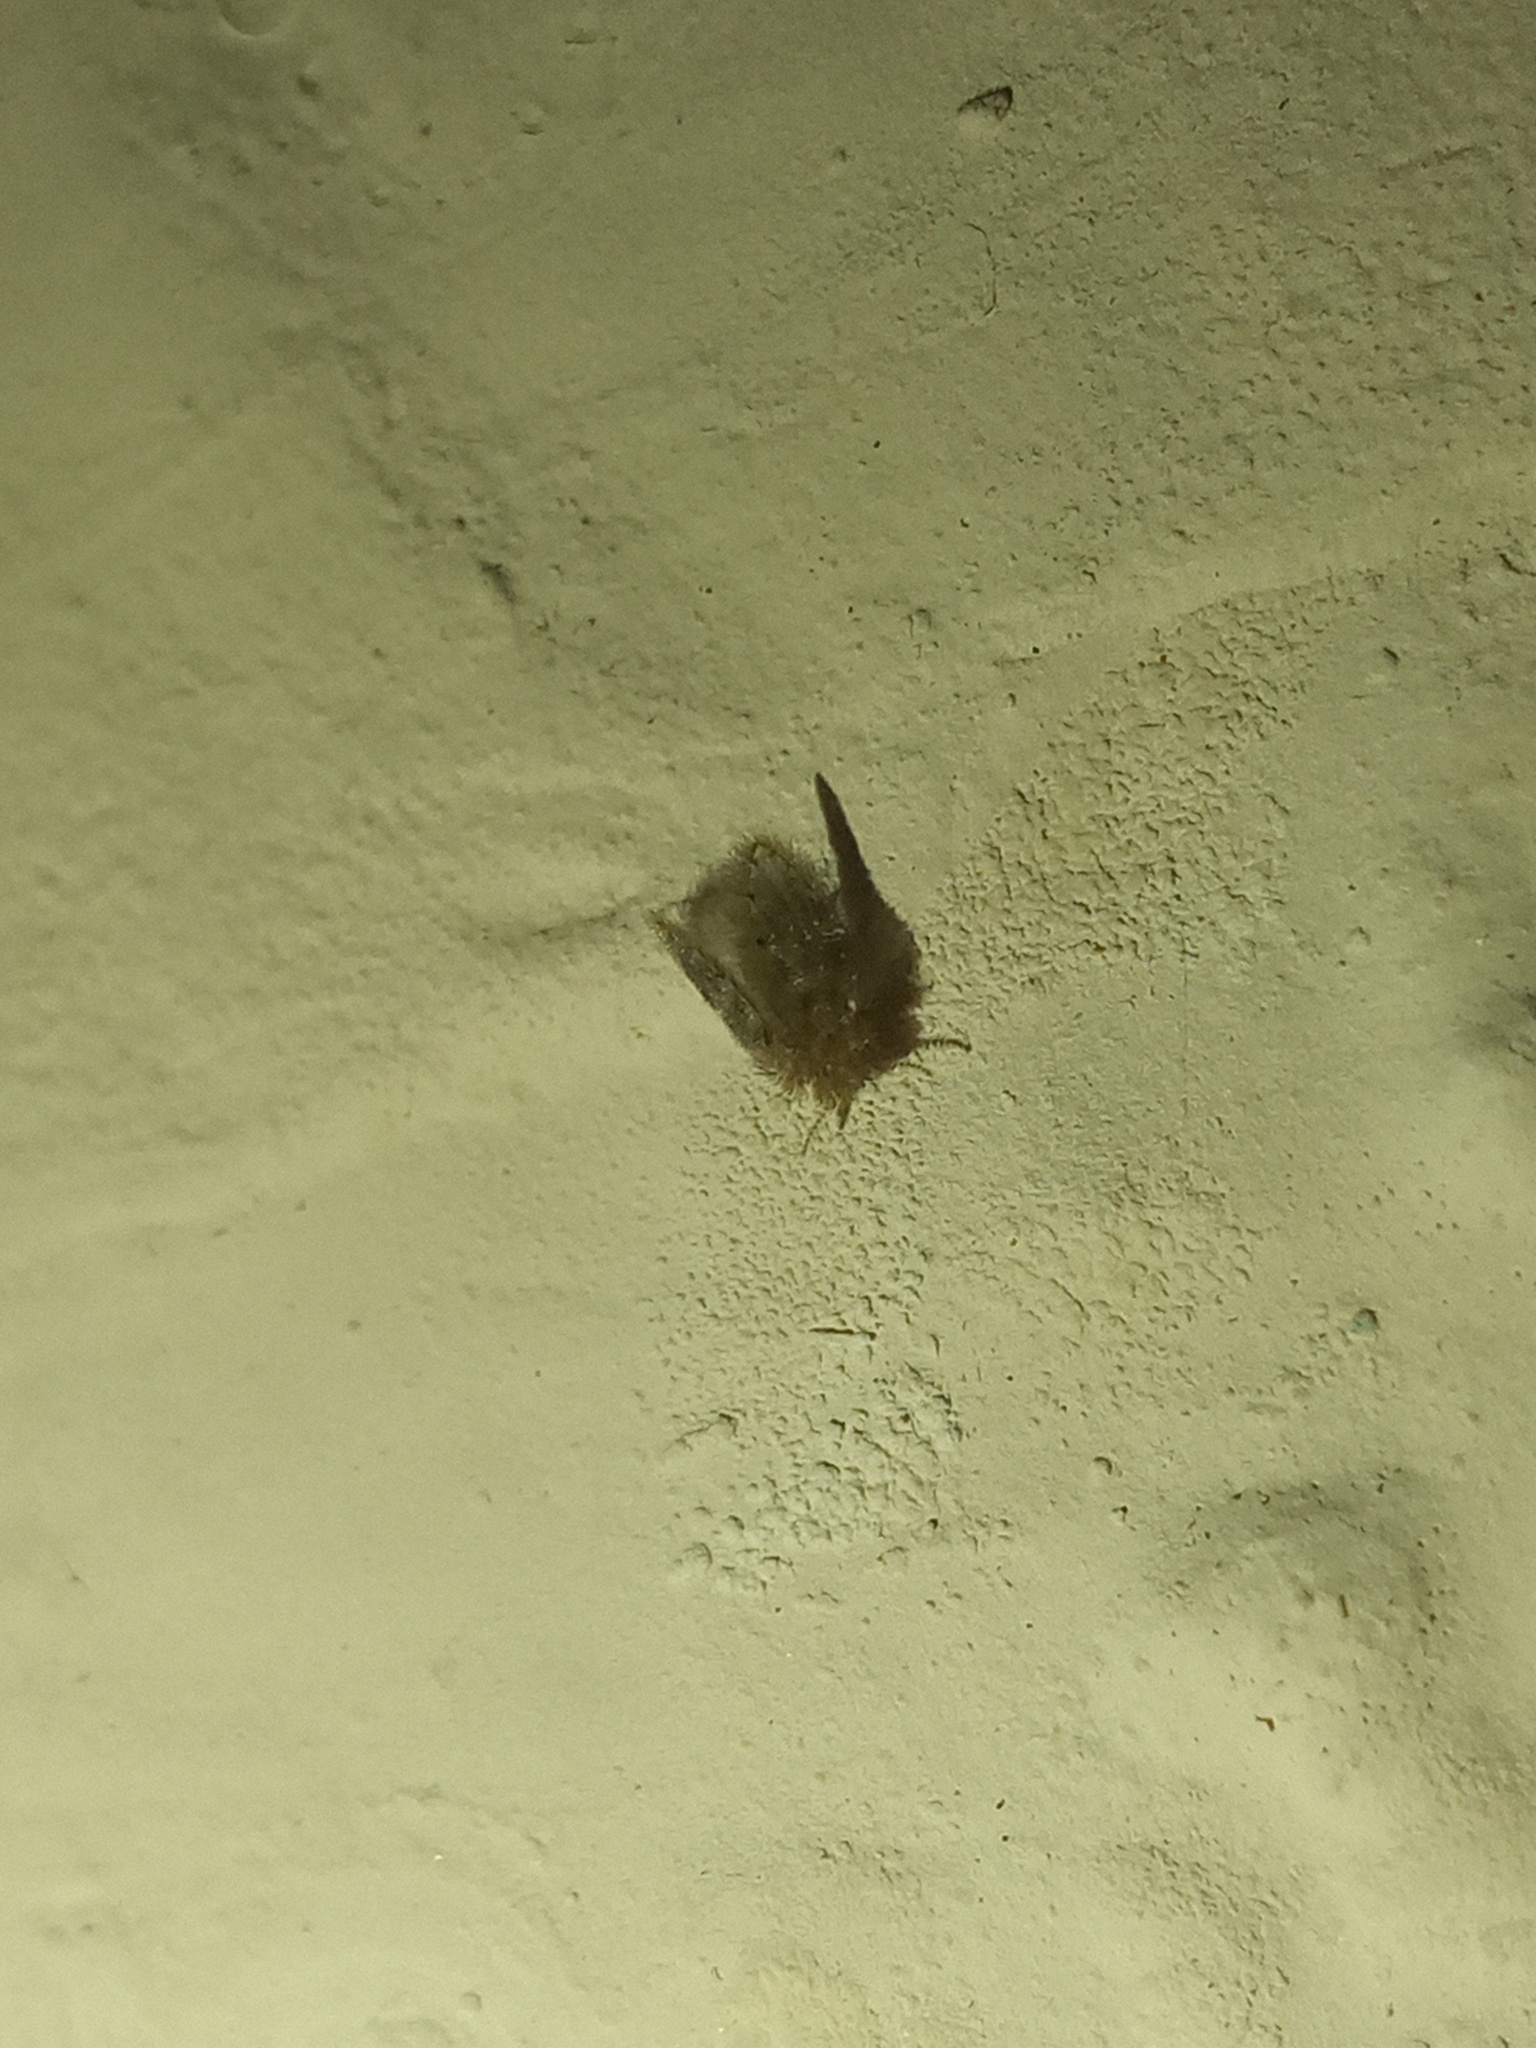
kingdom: Animalia
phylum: Arthropoda
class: Insecta
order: Diptera
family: Psychodidae
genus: Psychoda
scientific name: Psychoda alternata
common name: Moth fly
